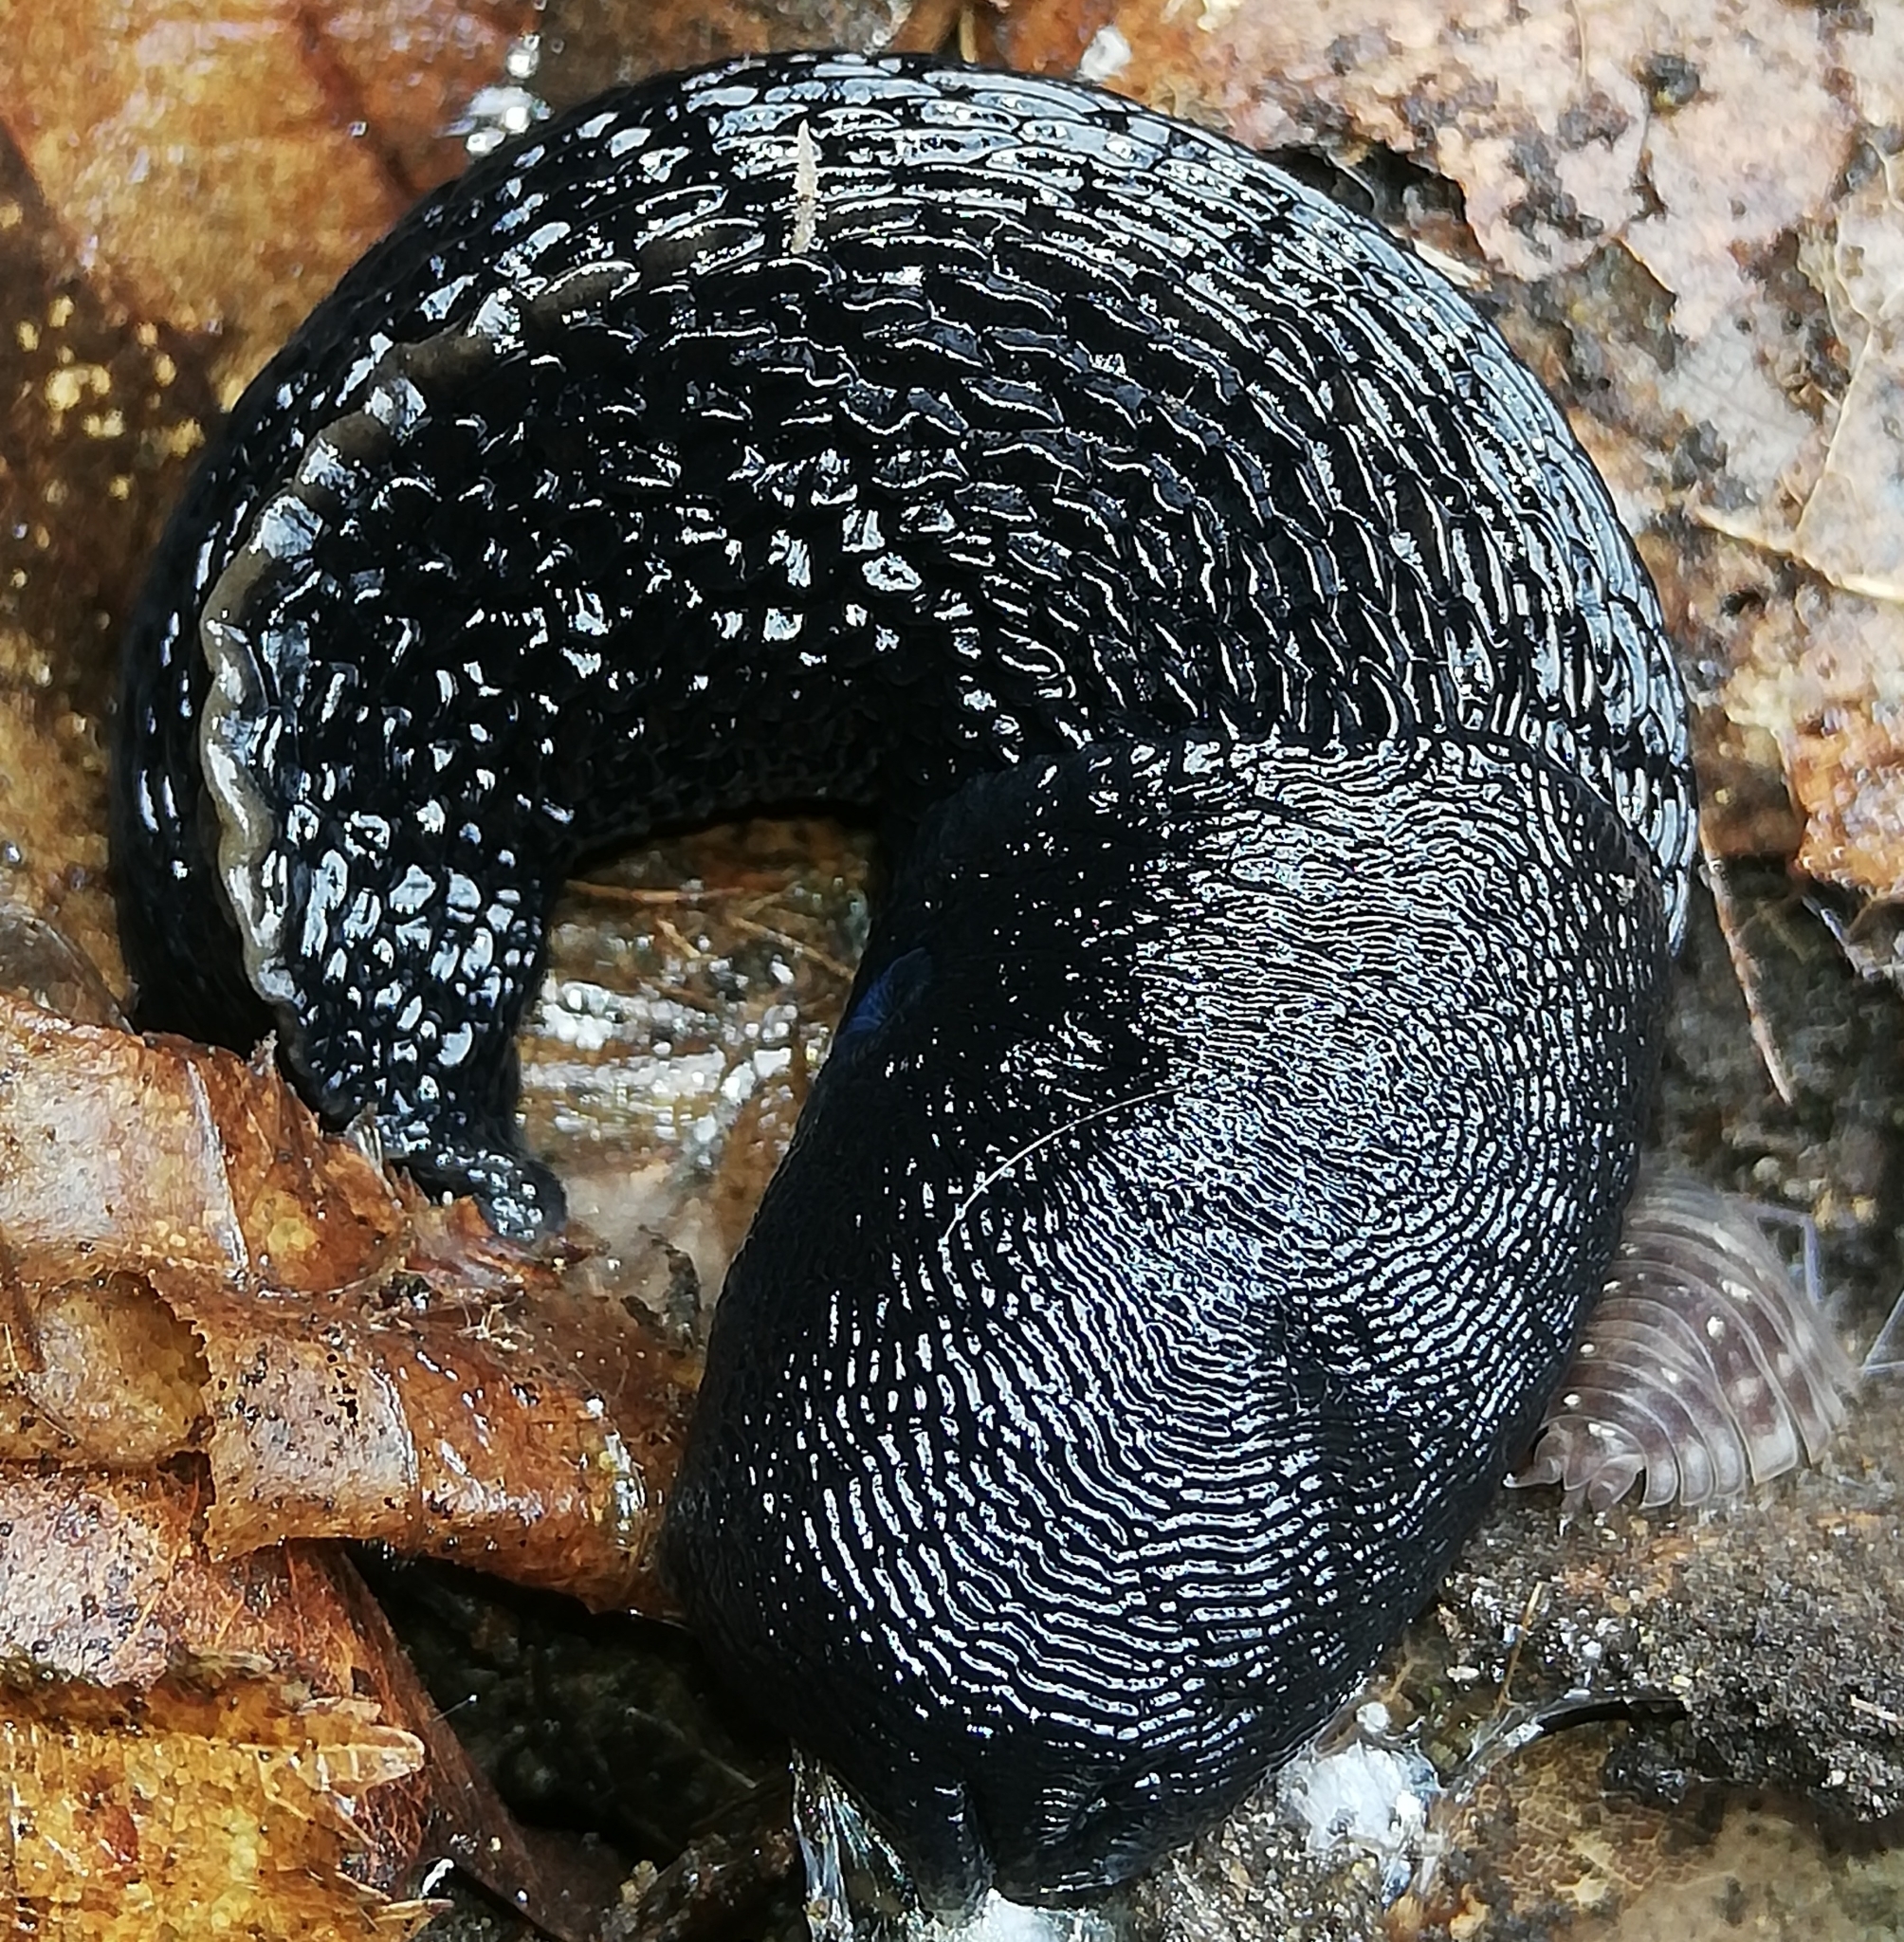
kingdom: Animalia
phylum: Mollusca
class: Gastropoda
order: Stylommatophora
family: Limacidae
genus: Limax
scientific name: Limax cinereoniger
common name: Ash-black slug
